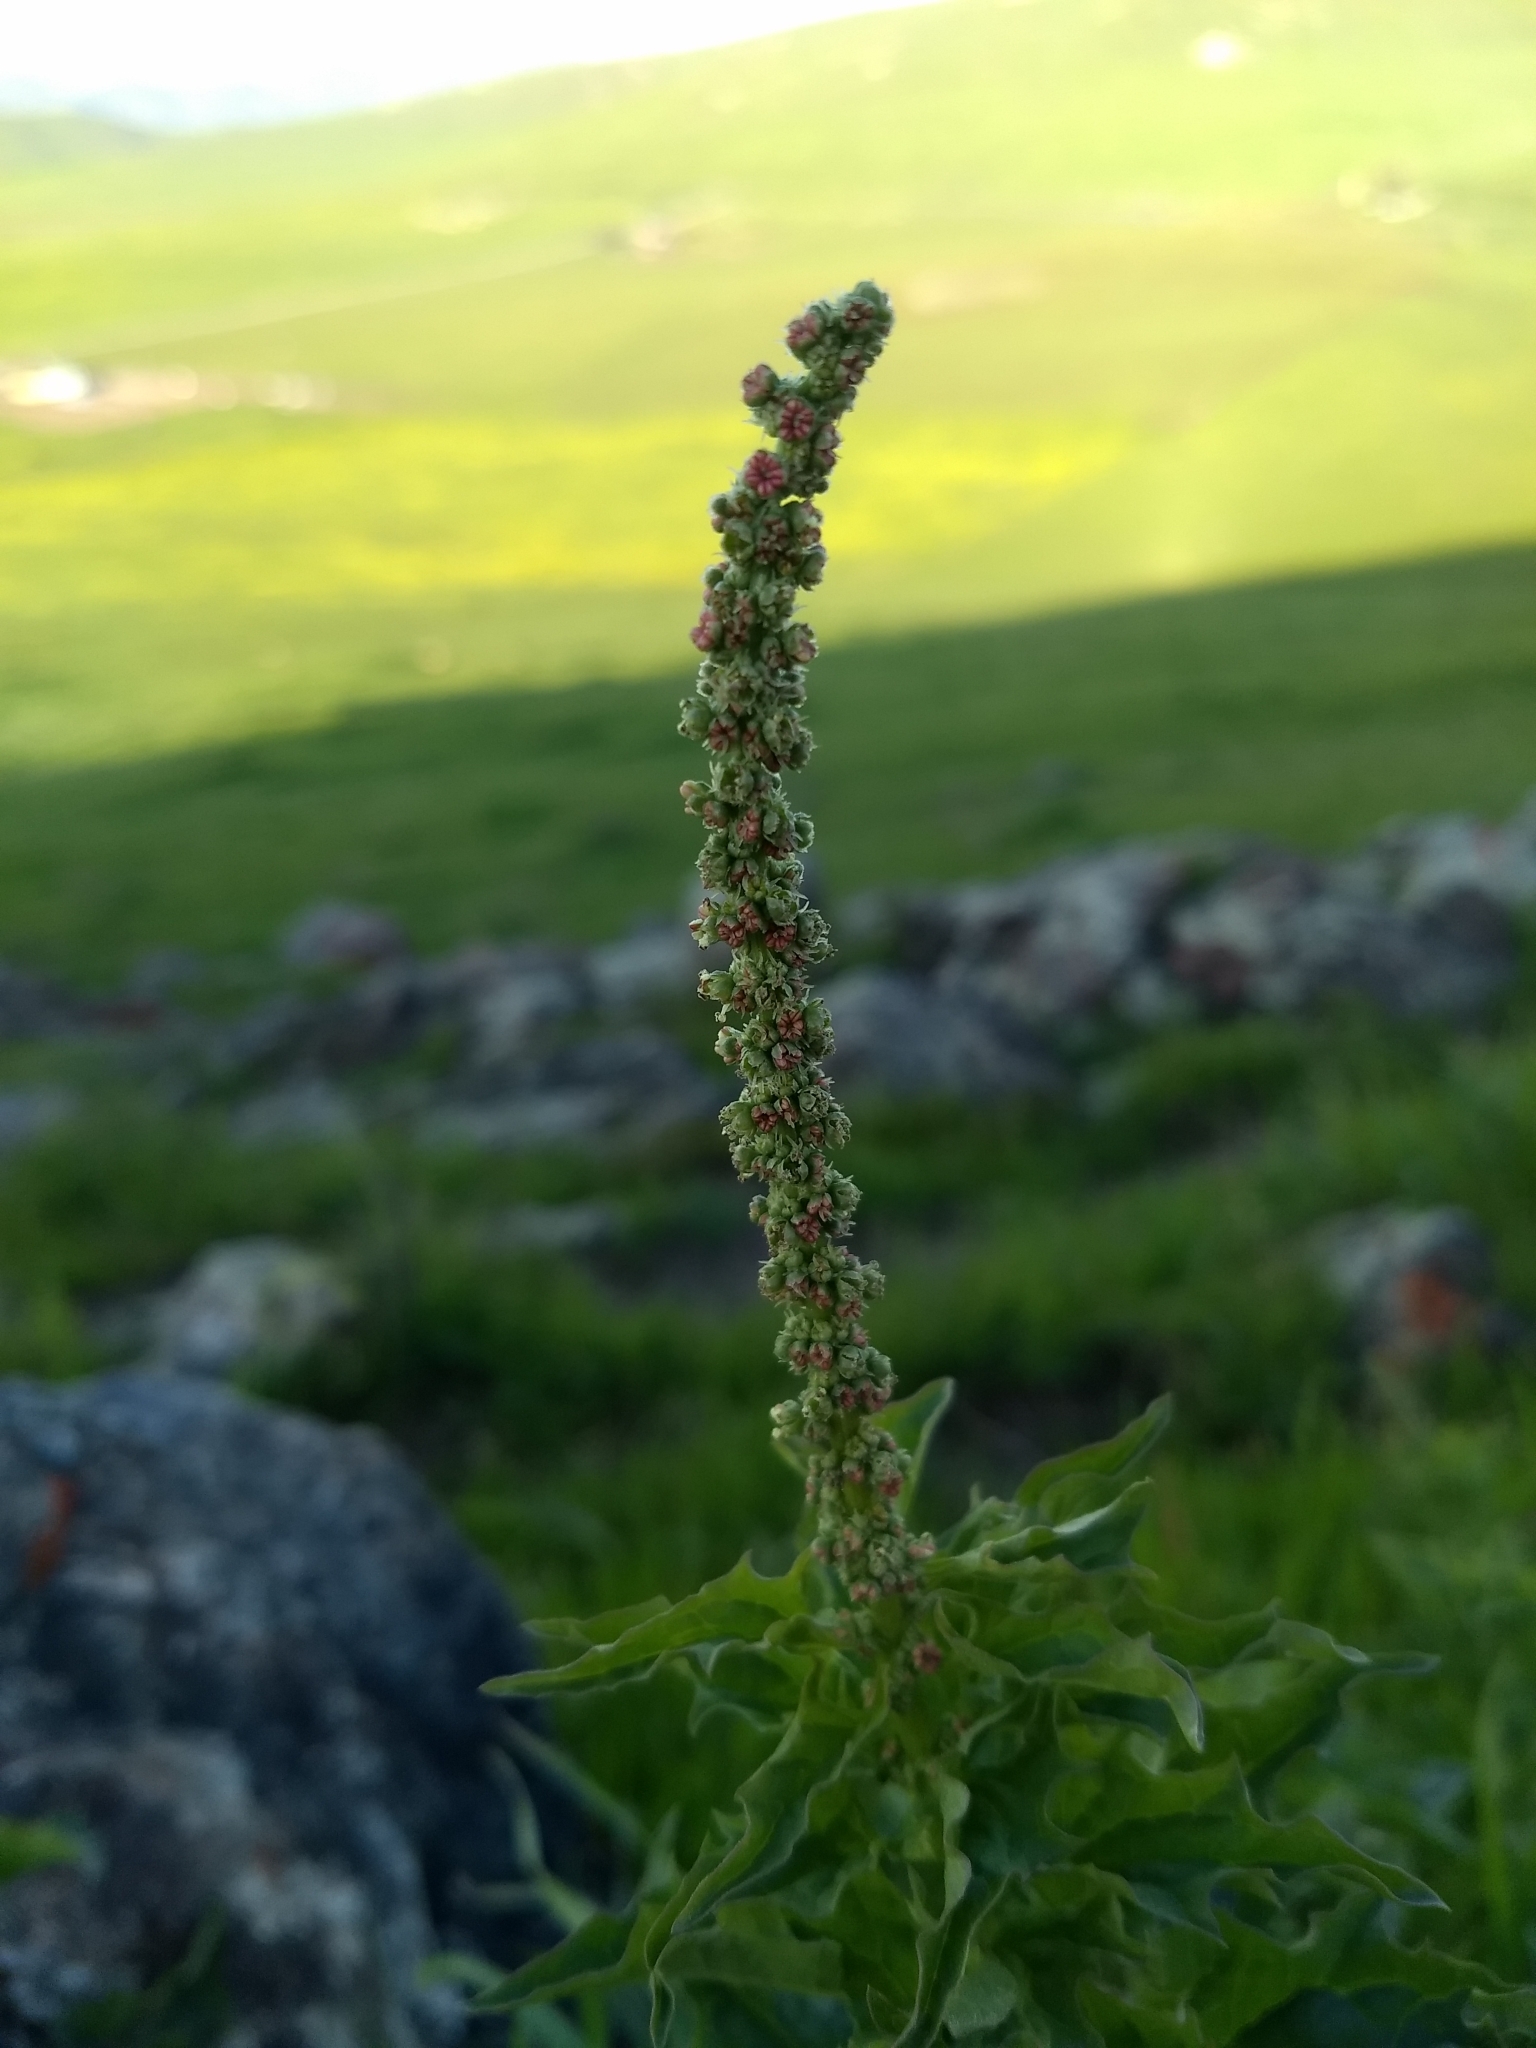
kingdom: Plantae
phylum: Tracheophyta
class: Magnoliopsida
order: Caryophyllales
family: Amaranthaceae
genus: Blitum
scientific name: Blitum californicum
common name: California goosefoot
